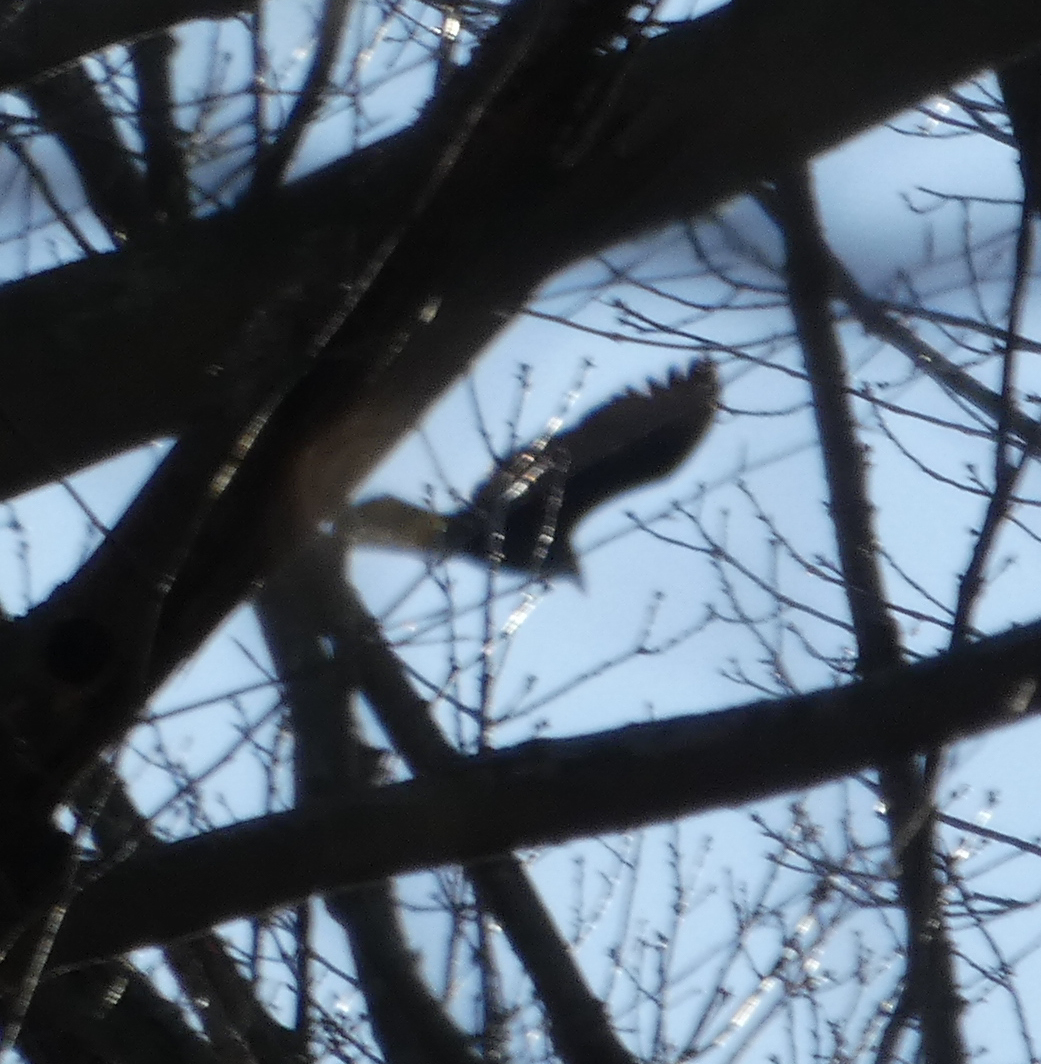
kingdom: Animalia
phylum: Chordata
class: Aves
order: Accipitriformes
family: Cathartidae
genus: Cathartes
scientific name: Cathartes aura
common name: Turkey vulture
